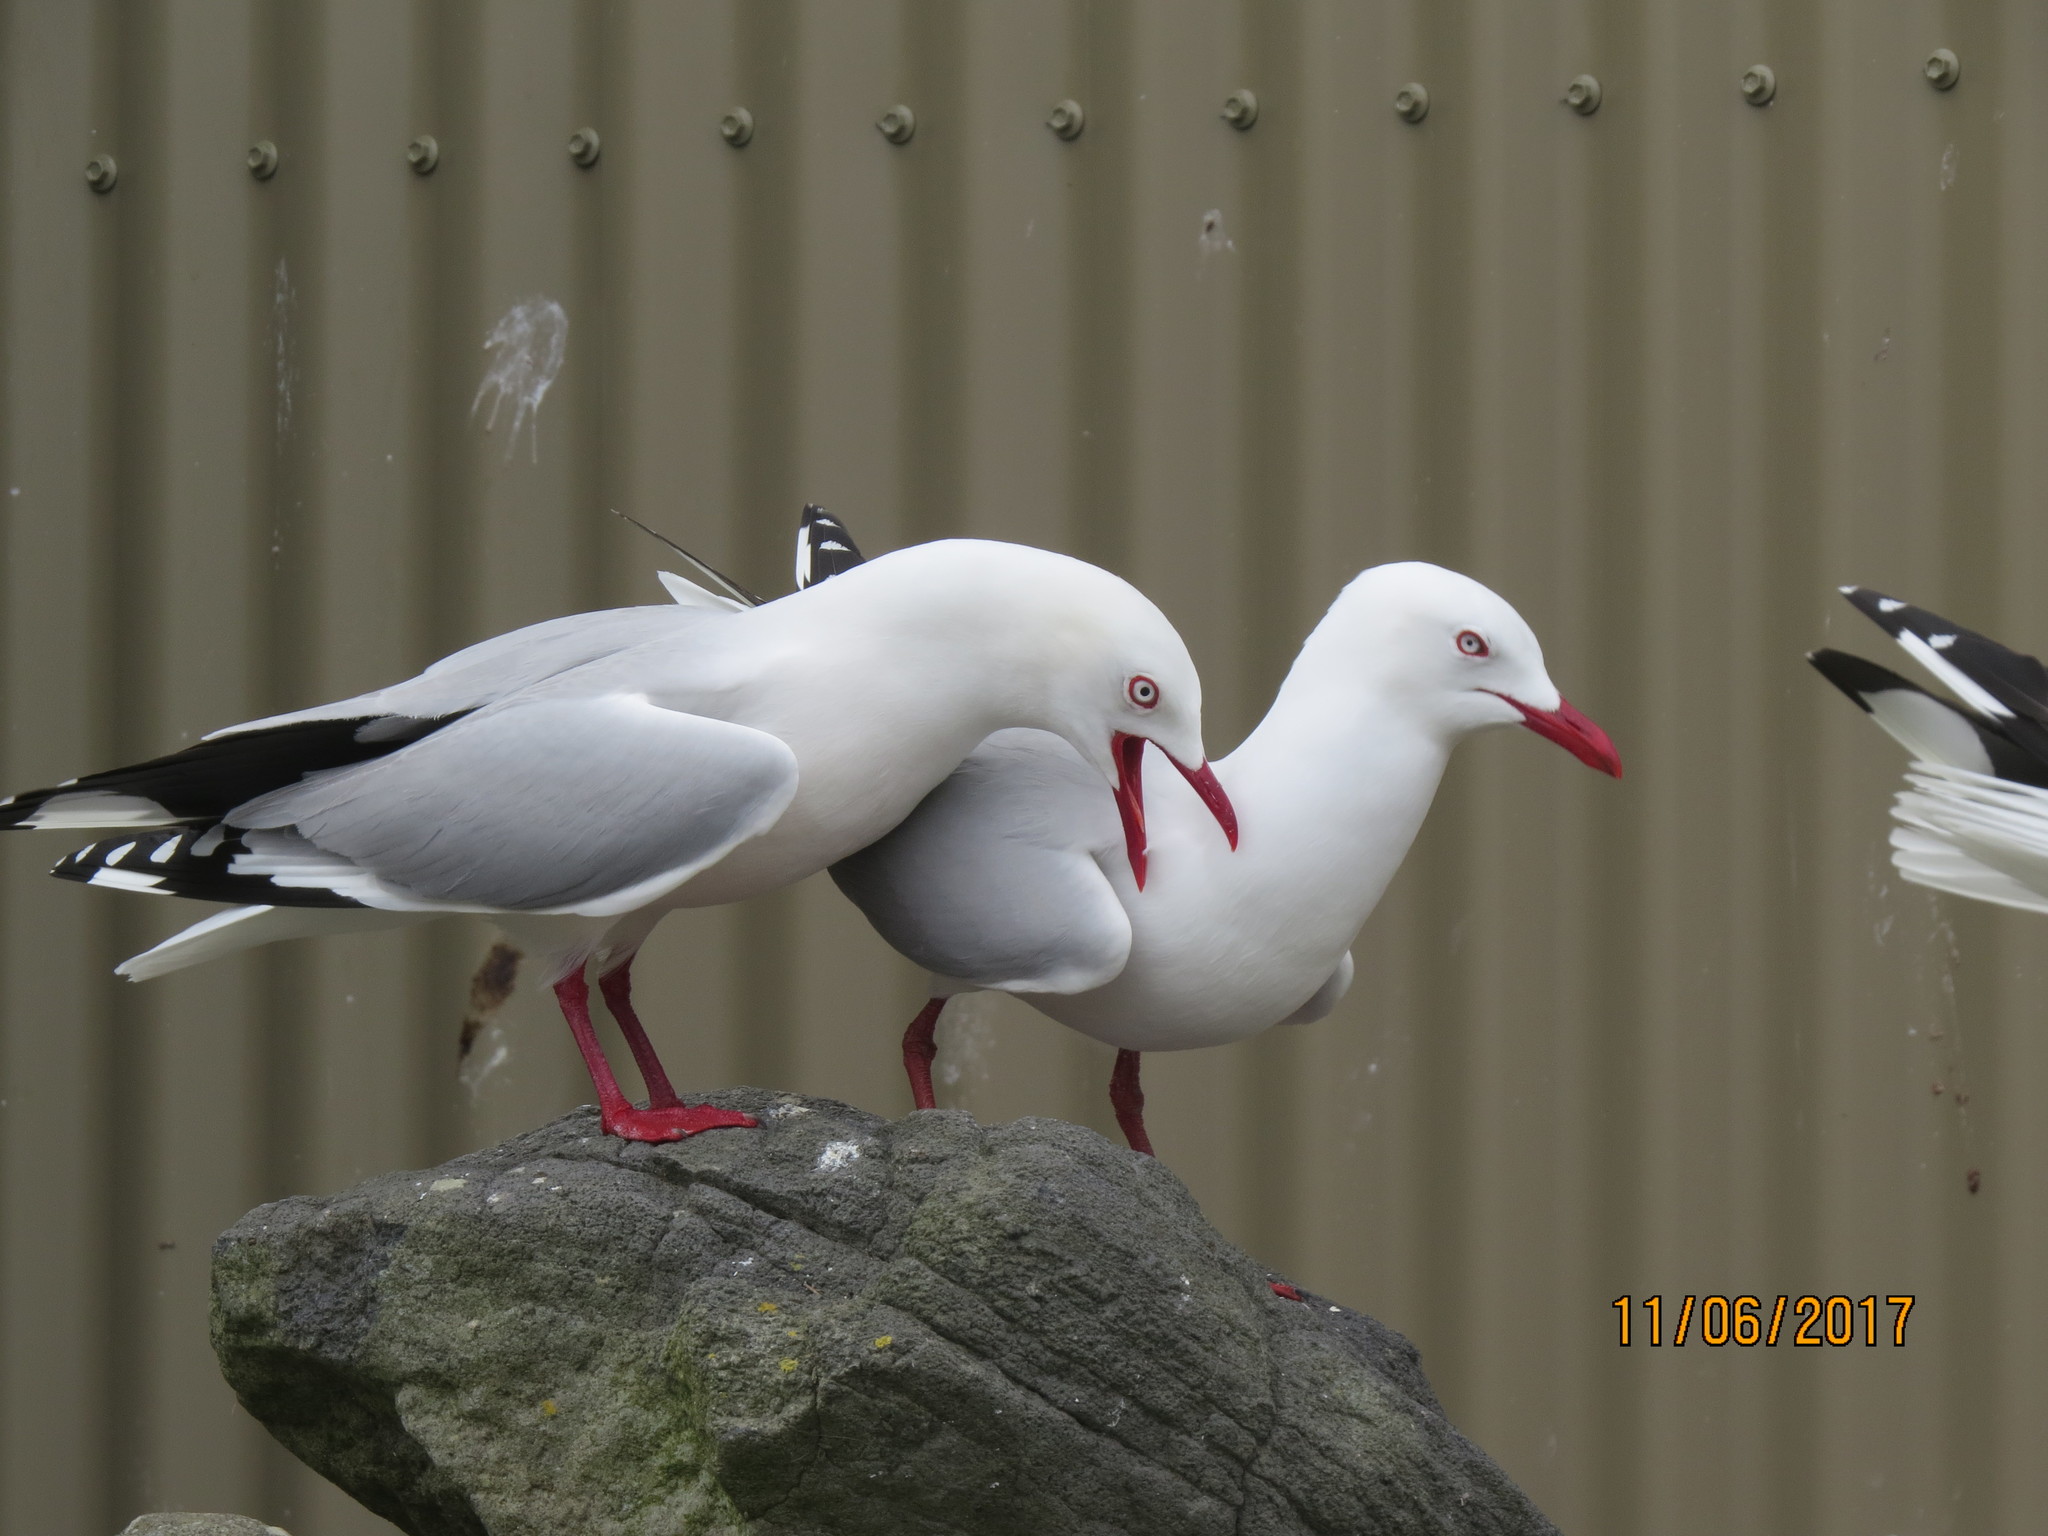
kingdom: Animalia
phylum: Chordata
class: Aves
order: Charadriiformes
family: Laridae
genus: Chroicocephalus
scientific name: Chroicocephalus novaehollandiae
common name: Silver gull
